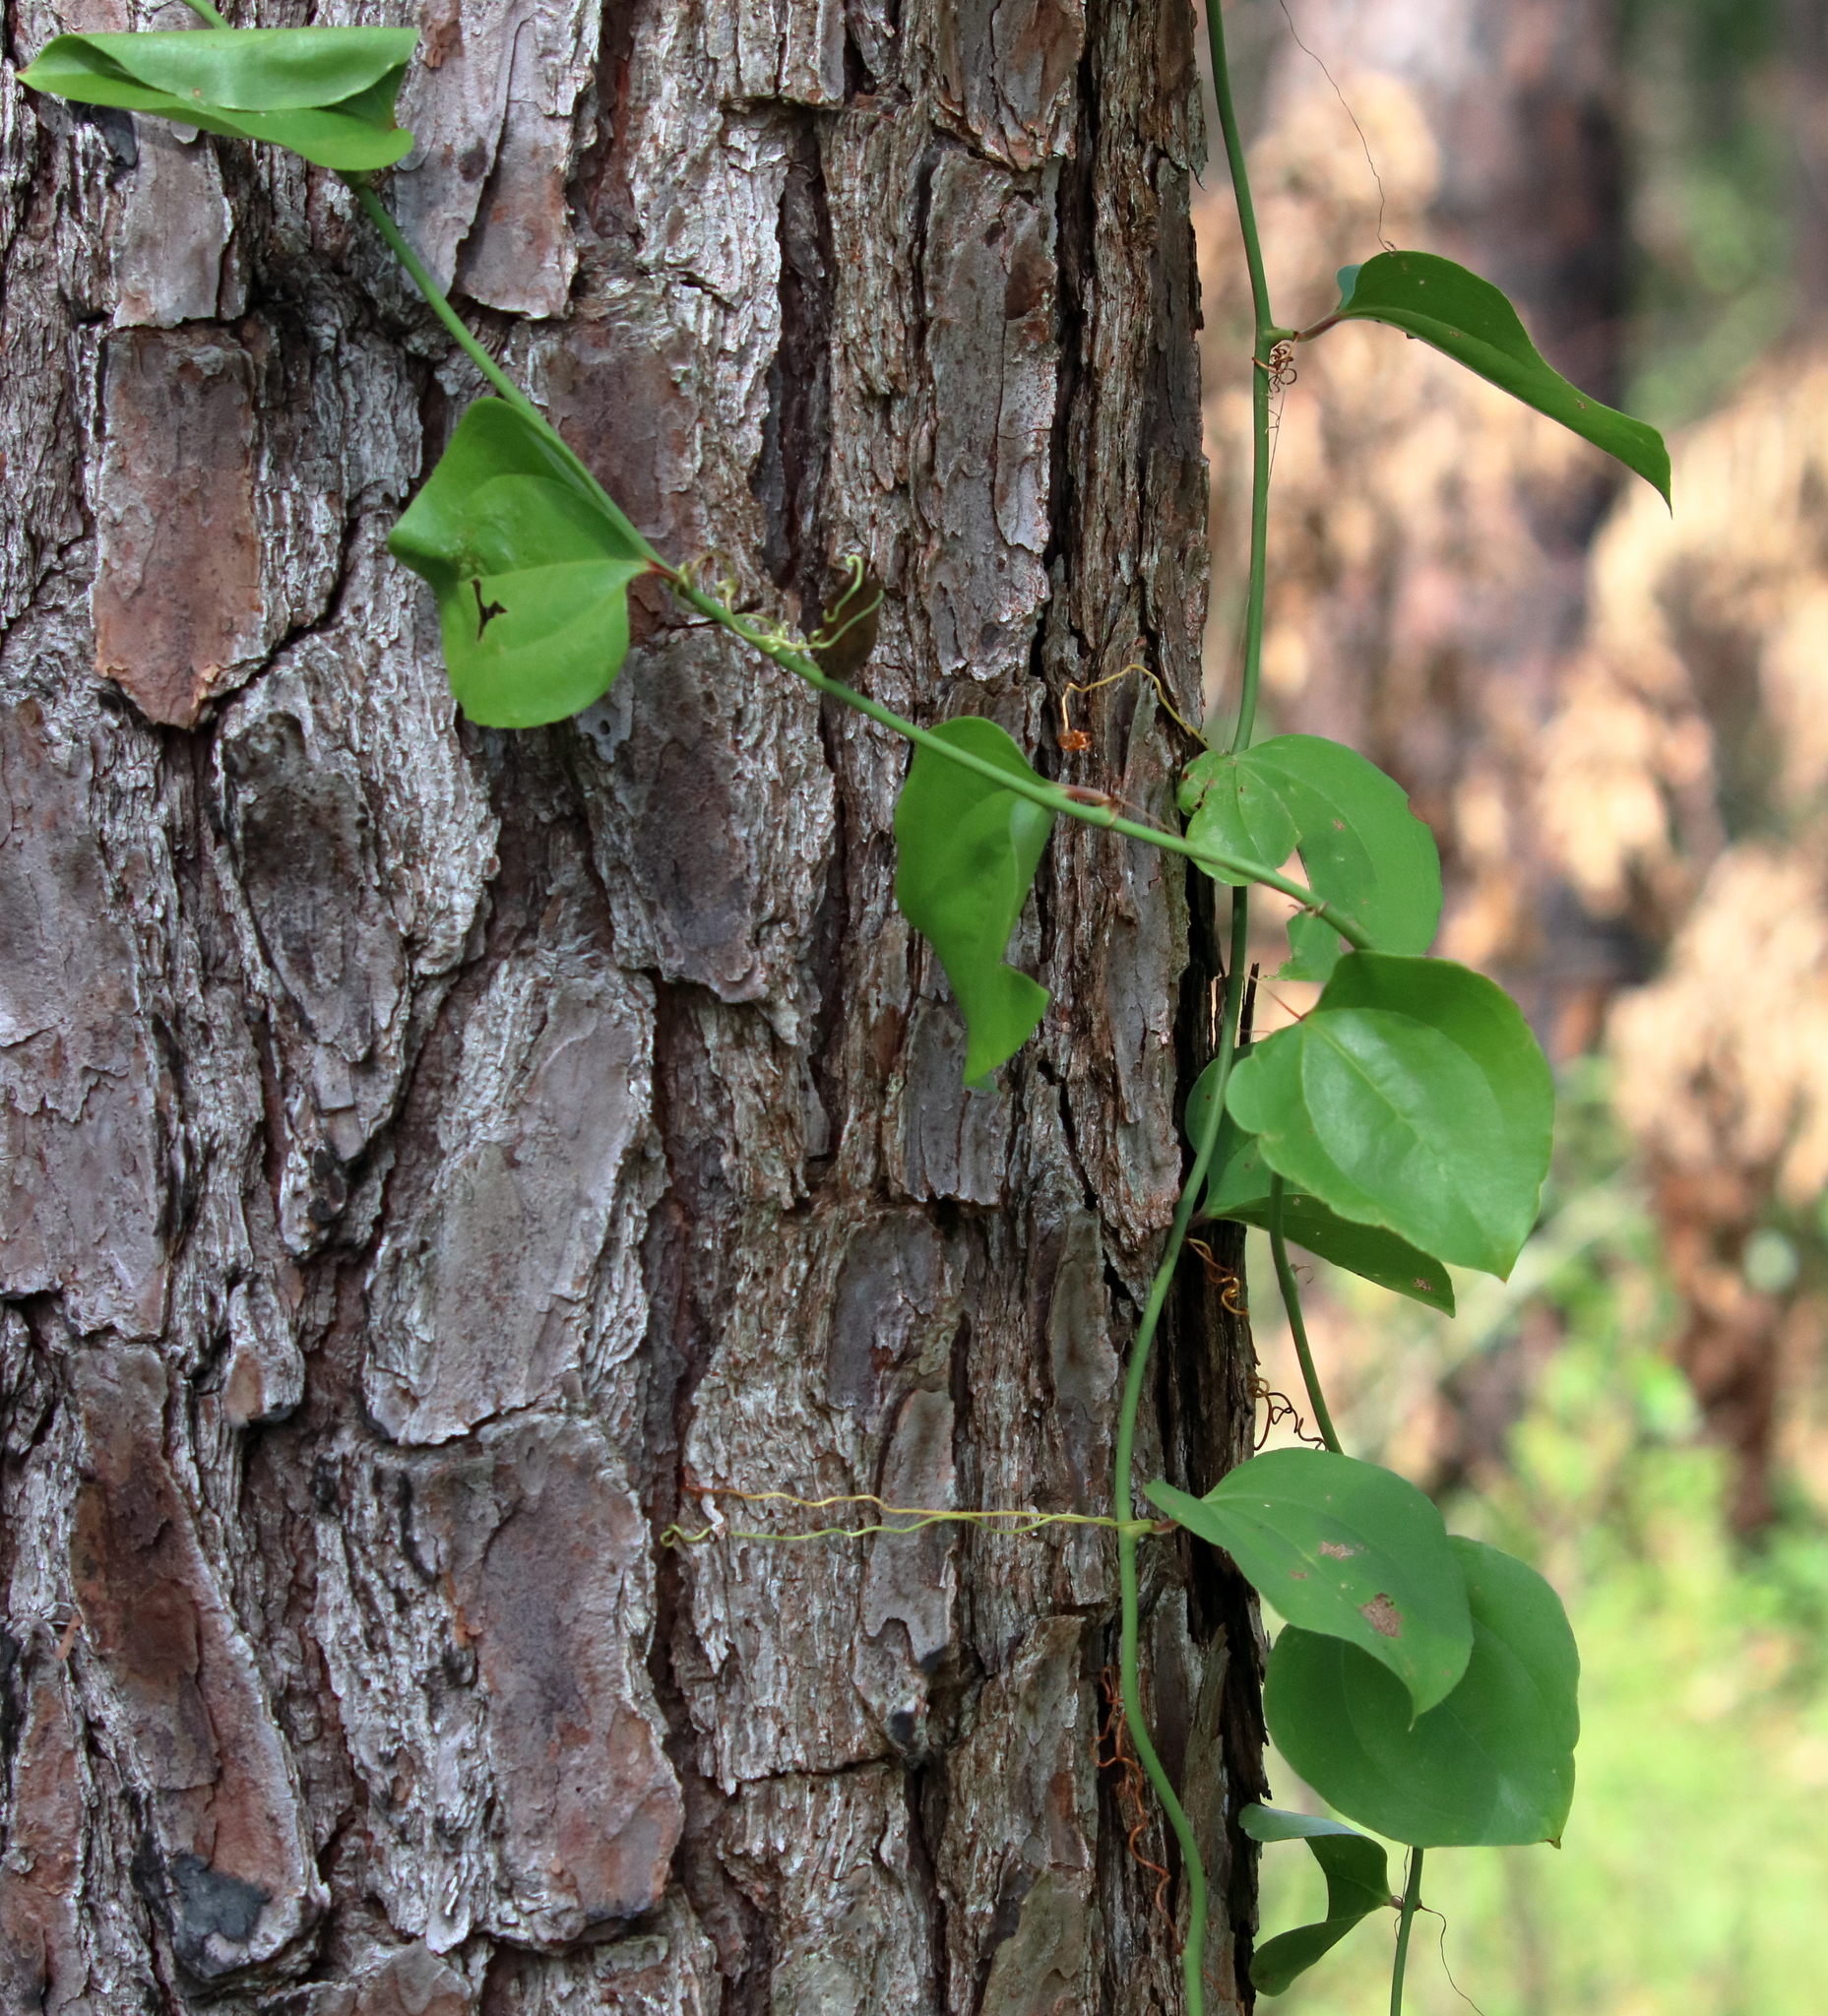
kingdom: Plantae
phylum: Tracheophyta
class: Liliopsida
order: Liliales
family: Smilacaceae
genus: Smilax
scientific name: Smilax rotundifolia
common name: Bullbriar
